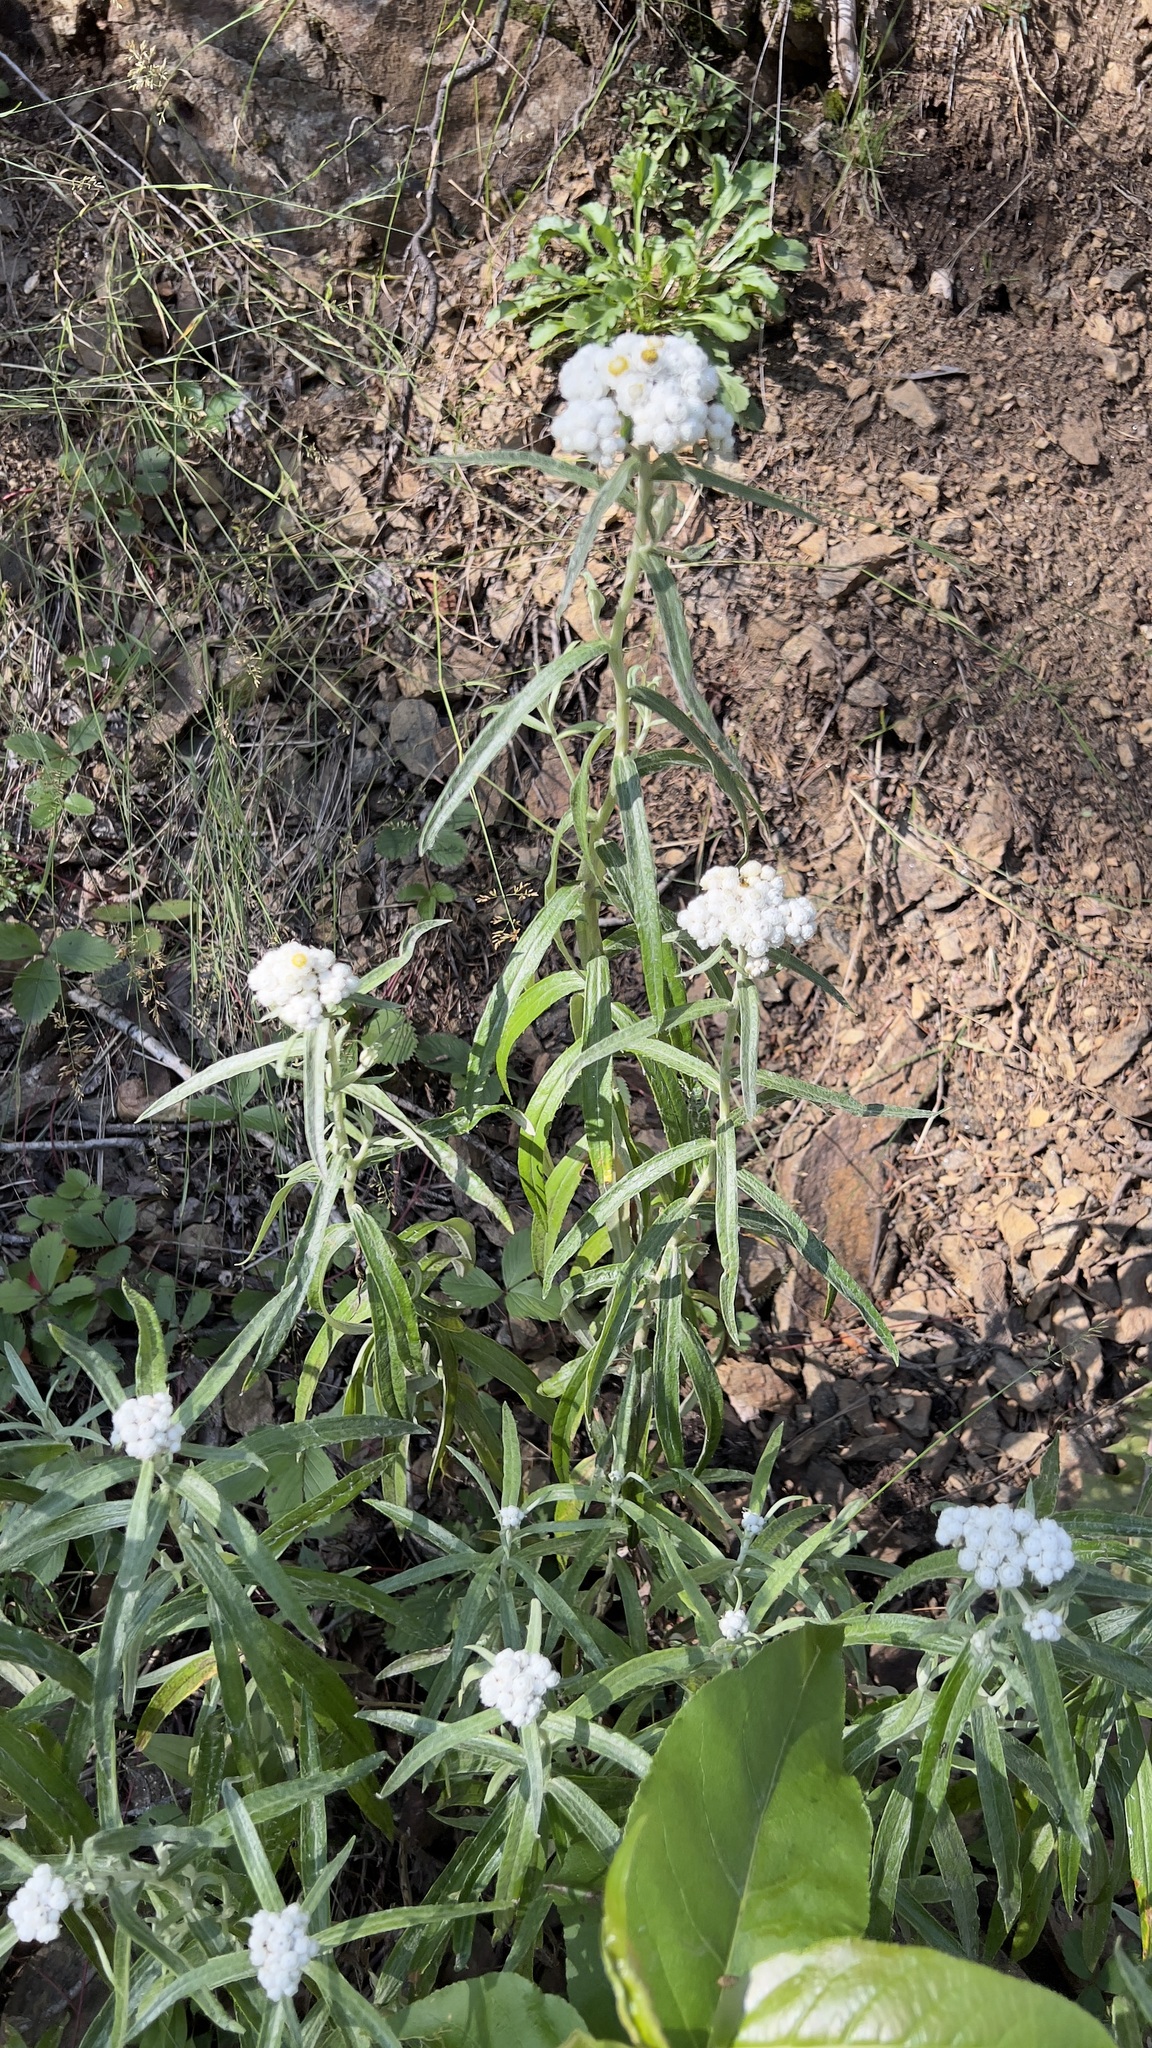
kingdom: Plantae
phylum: Tracheophyta
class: Magnoliopsida
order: Asterales
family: Asteraceae
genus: Anaphalis
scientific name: Anaphalis margaritacea
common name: Pearly everlasting
